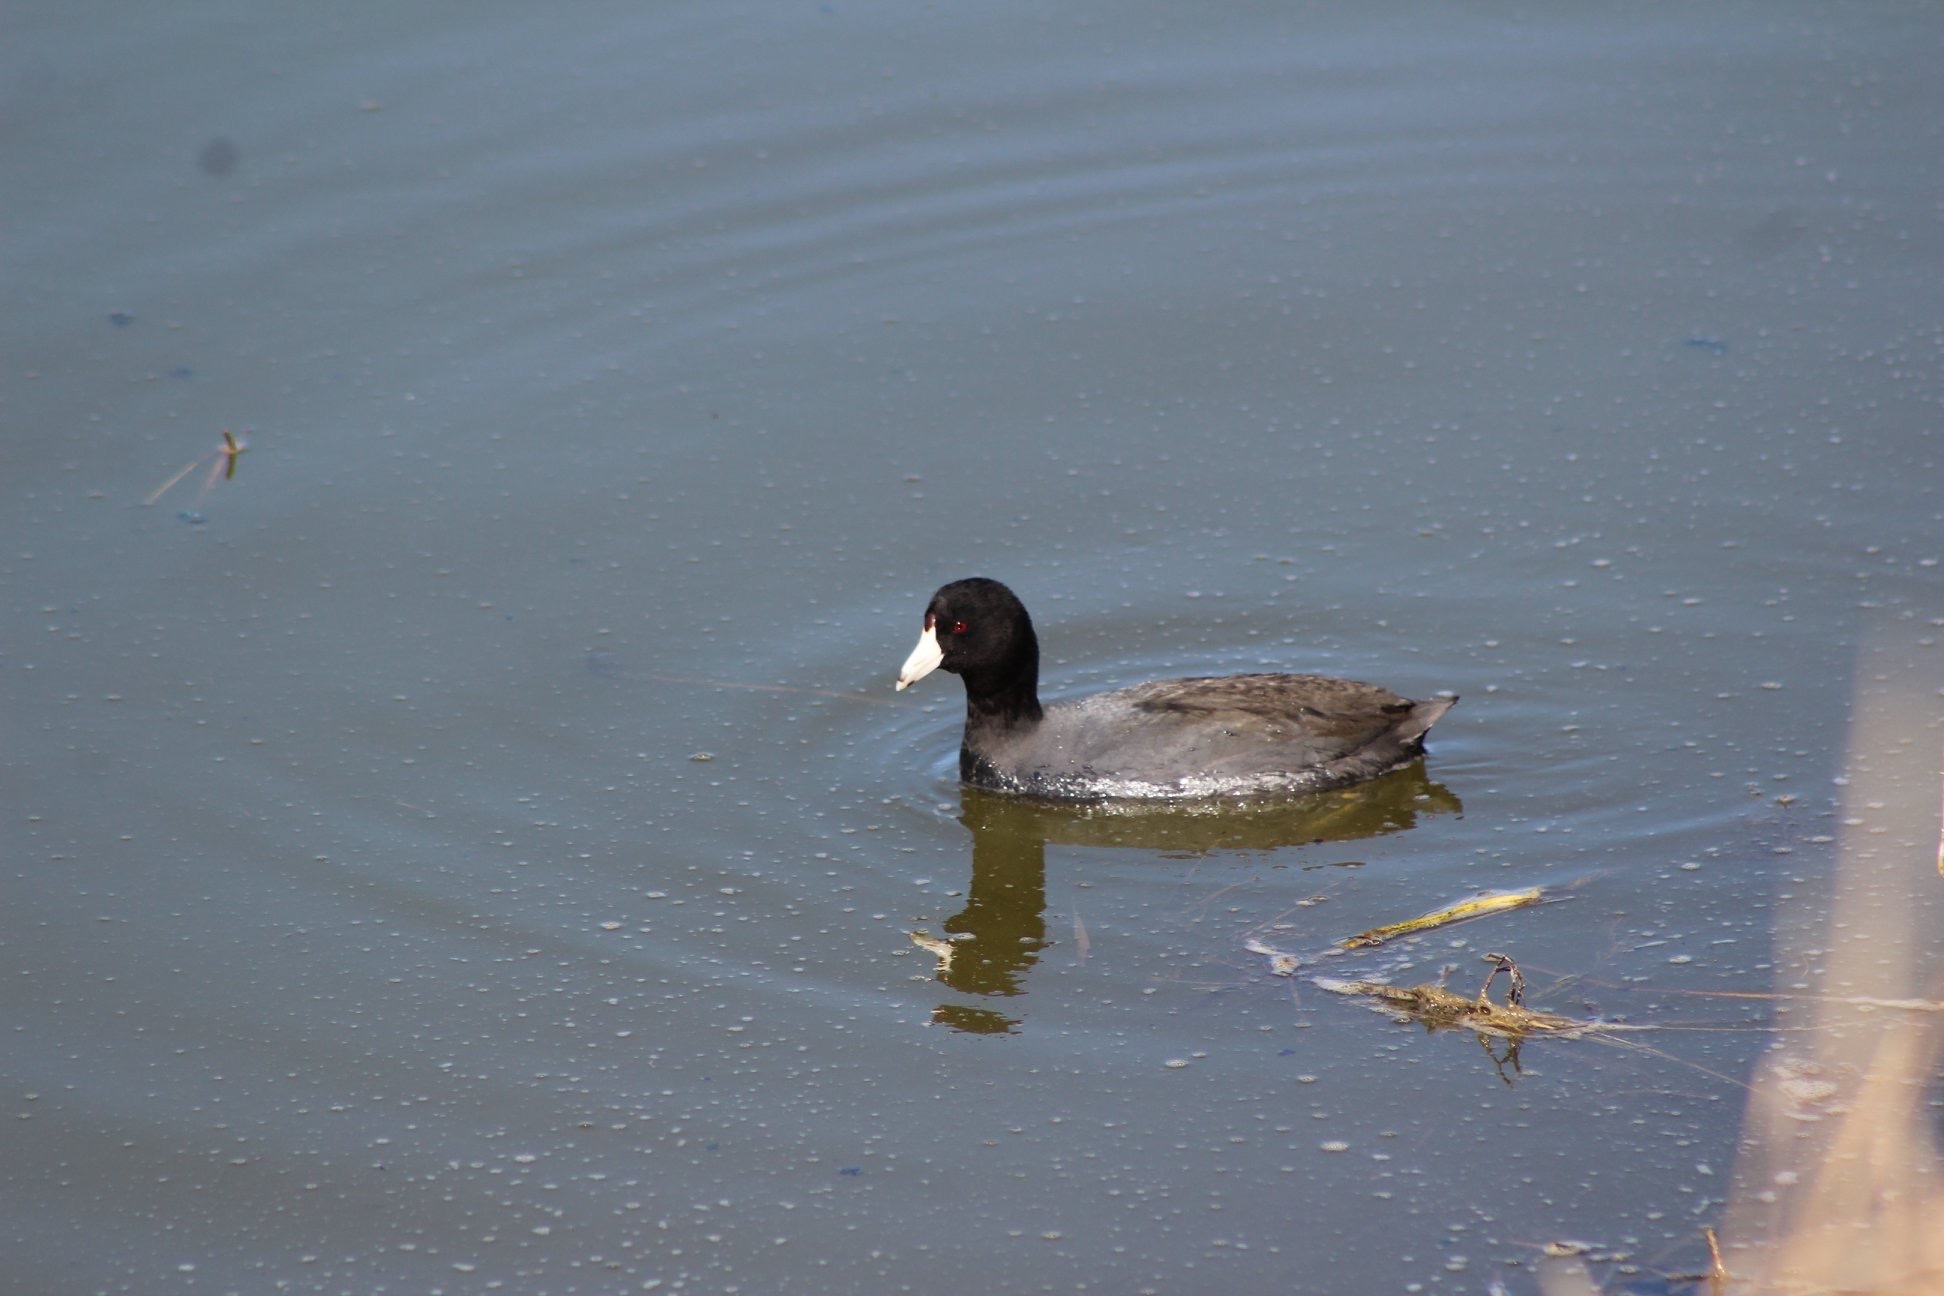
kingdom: Animalia
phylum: Chordata
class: Aves
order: Gruiformes
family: Rallidae
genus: Fulica
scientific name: Fulica americana
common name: American coot
